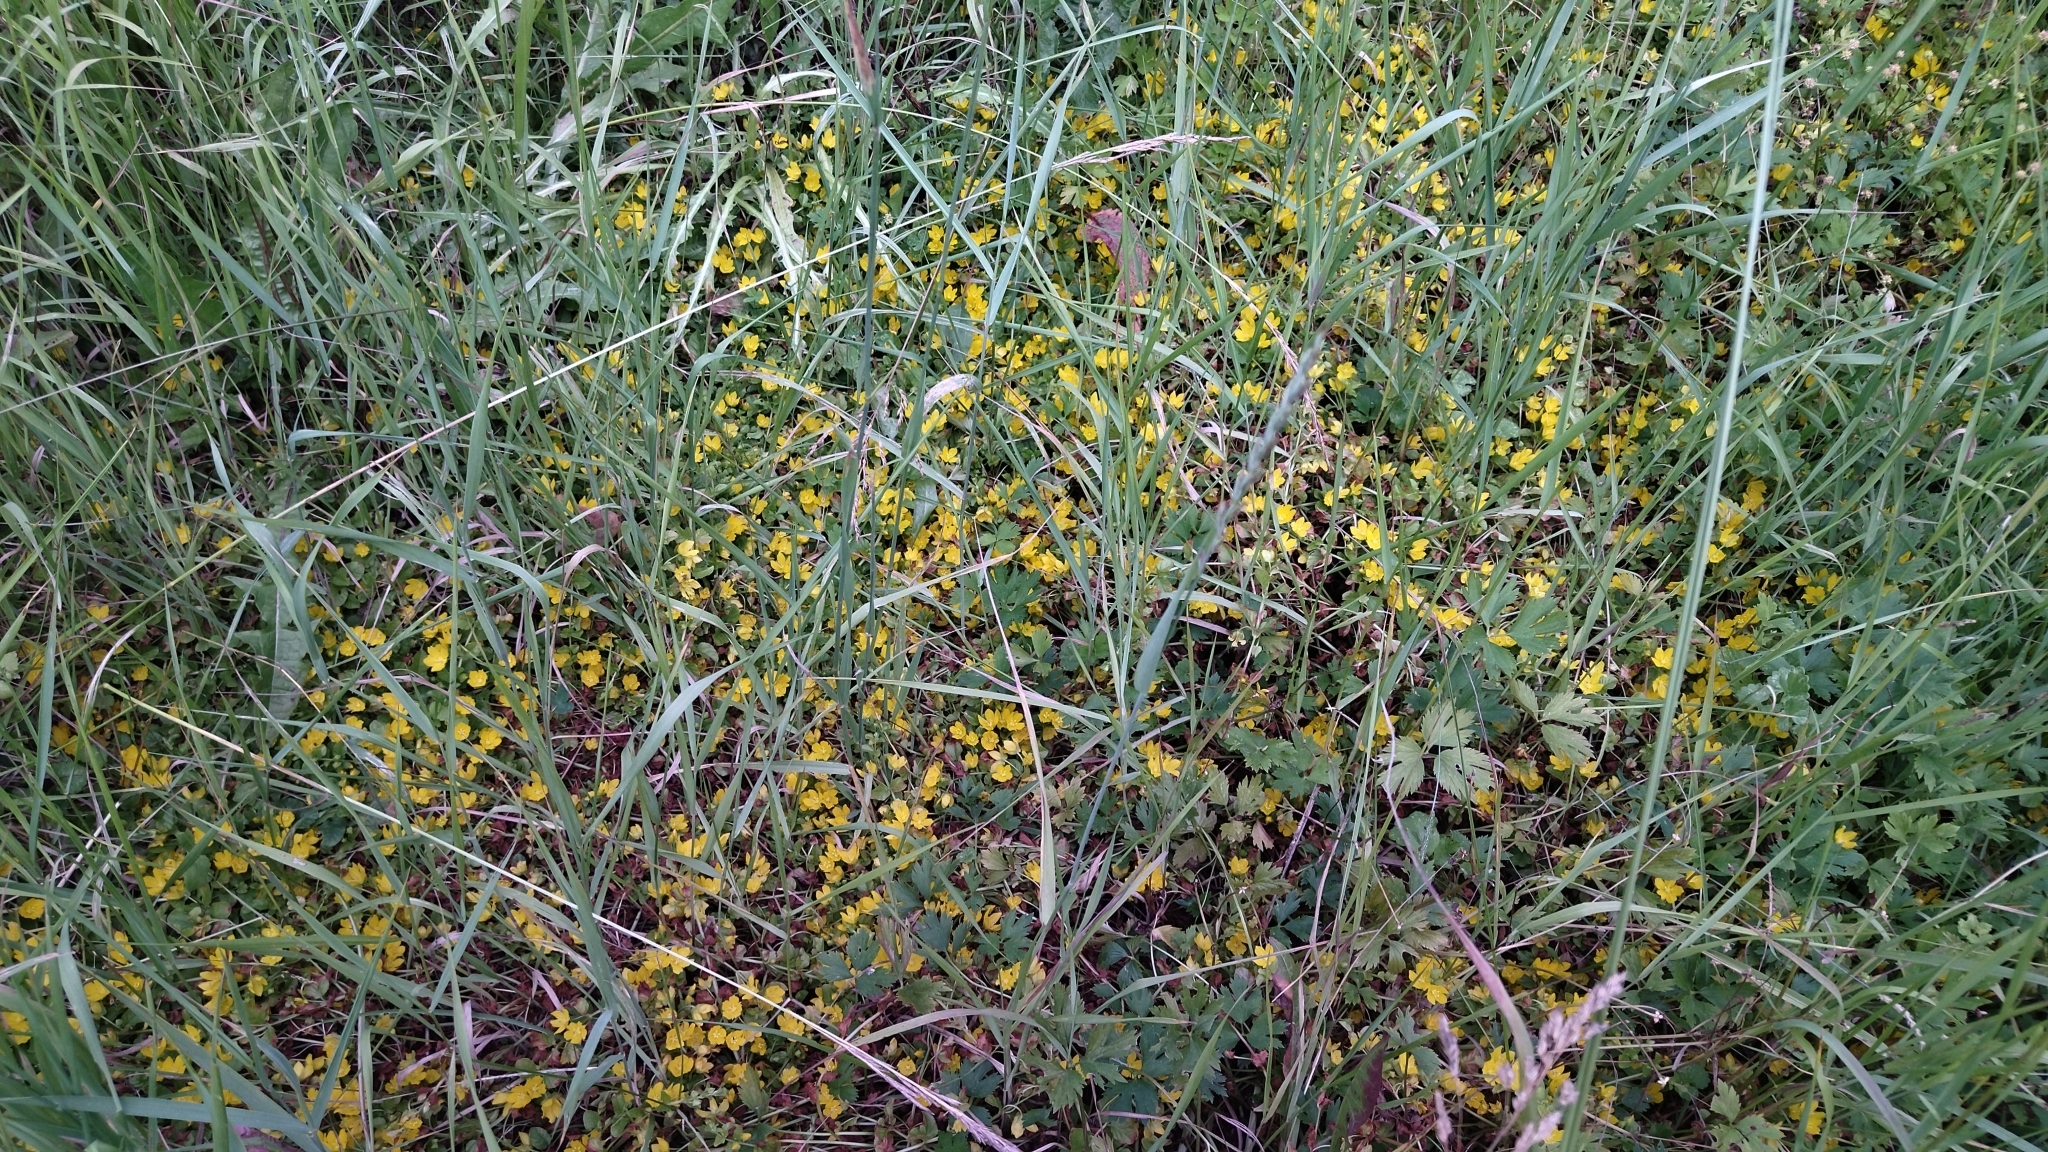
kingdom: Plantae
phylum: Tracheophyta
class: Magnoliopsida
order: Ericales
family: Primulaceae
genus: Lysimachia
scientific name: Lysimachia nummularia
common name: Moneywort
